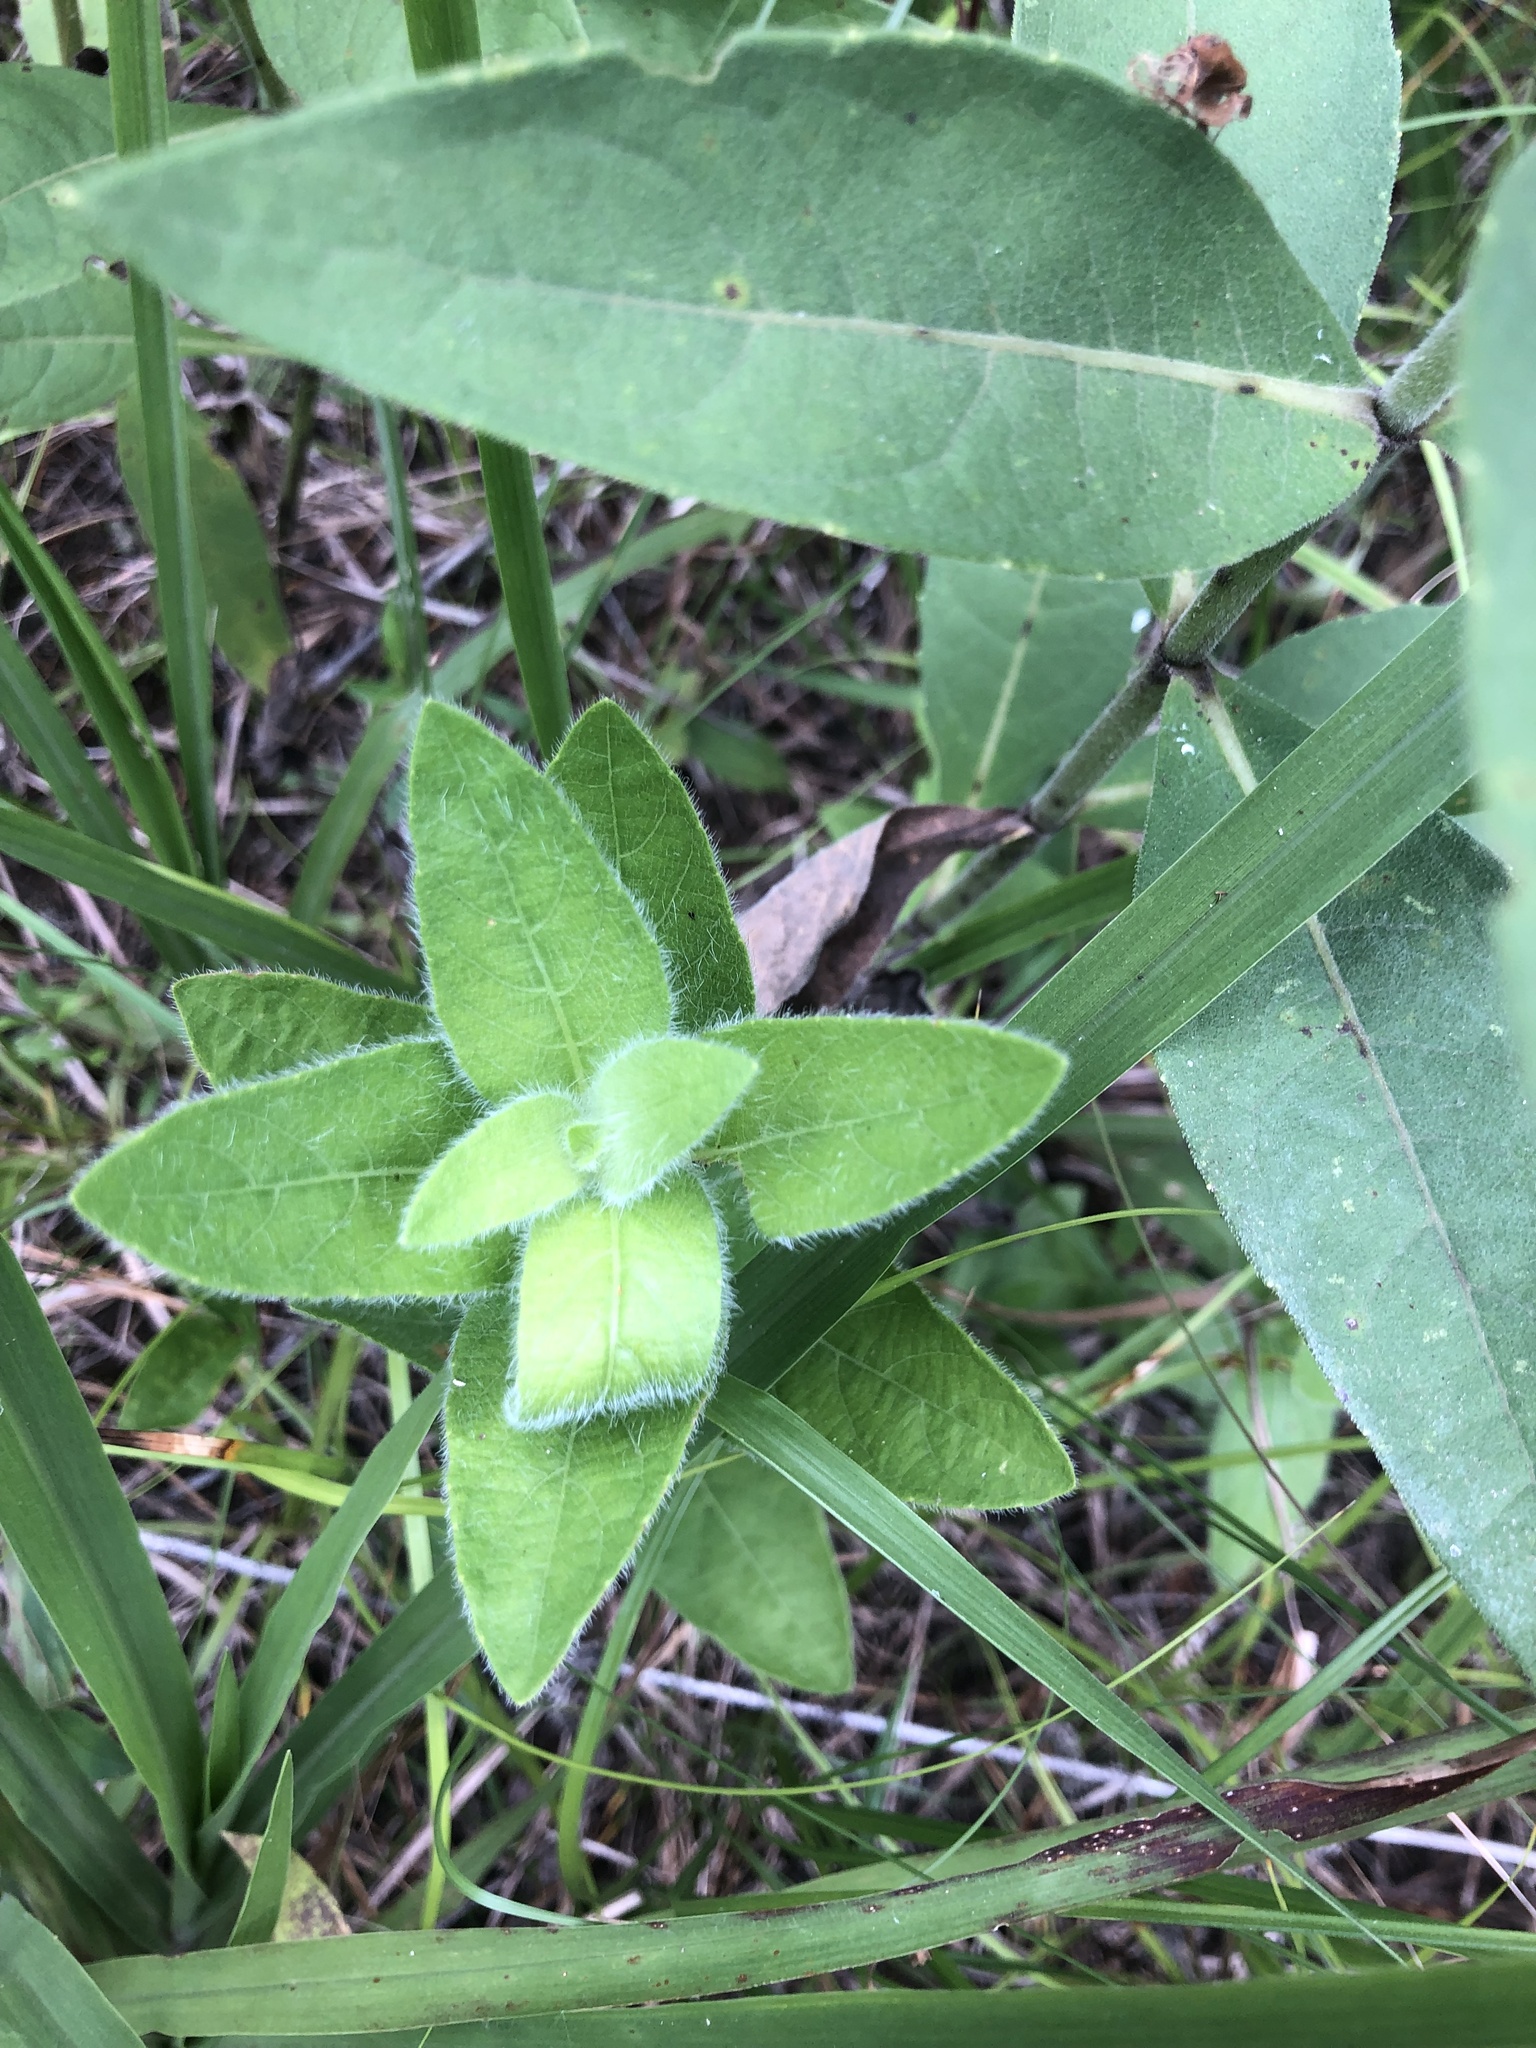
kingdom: Plantae
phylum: Tracheophyta
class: Magnoliopsida
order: Lamiales
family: Acanthaceae
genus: Ruellia
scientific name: Ruellia humilis
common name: Fringe-leaf ruellia
